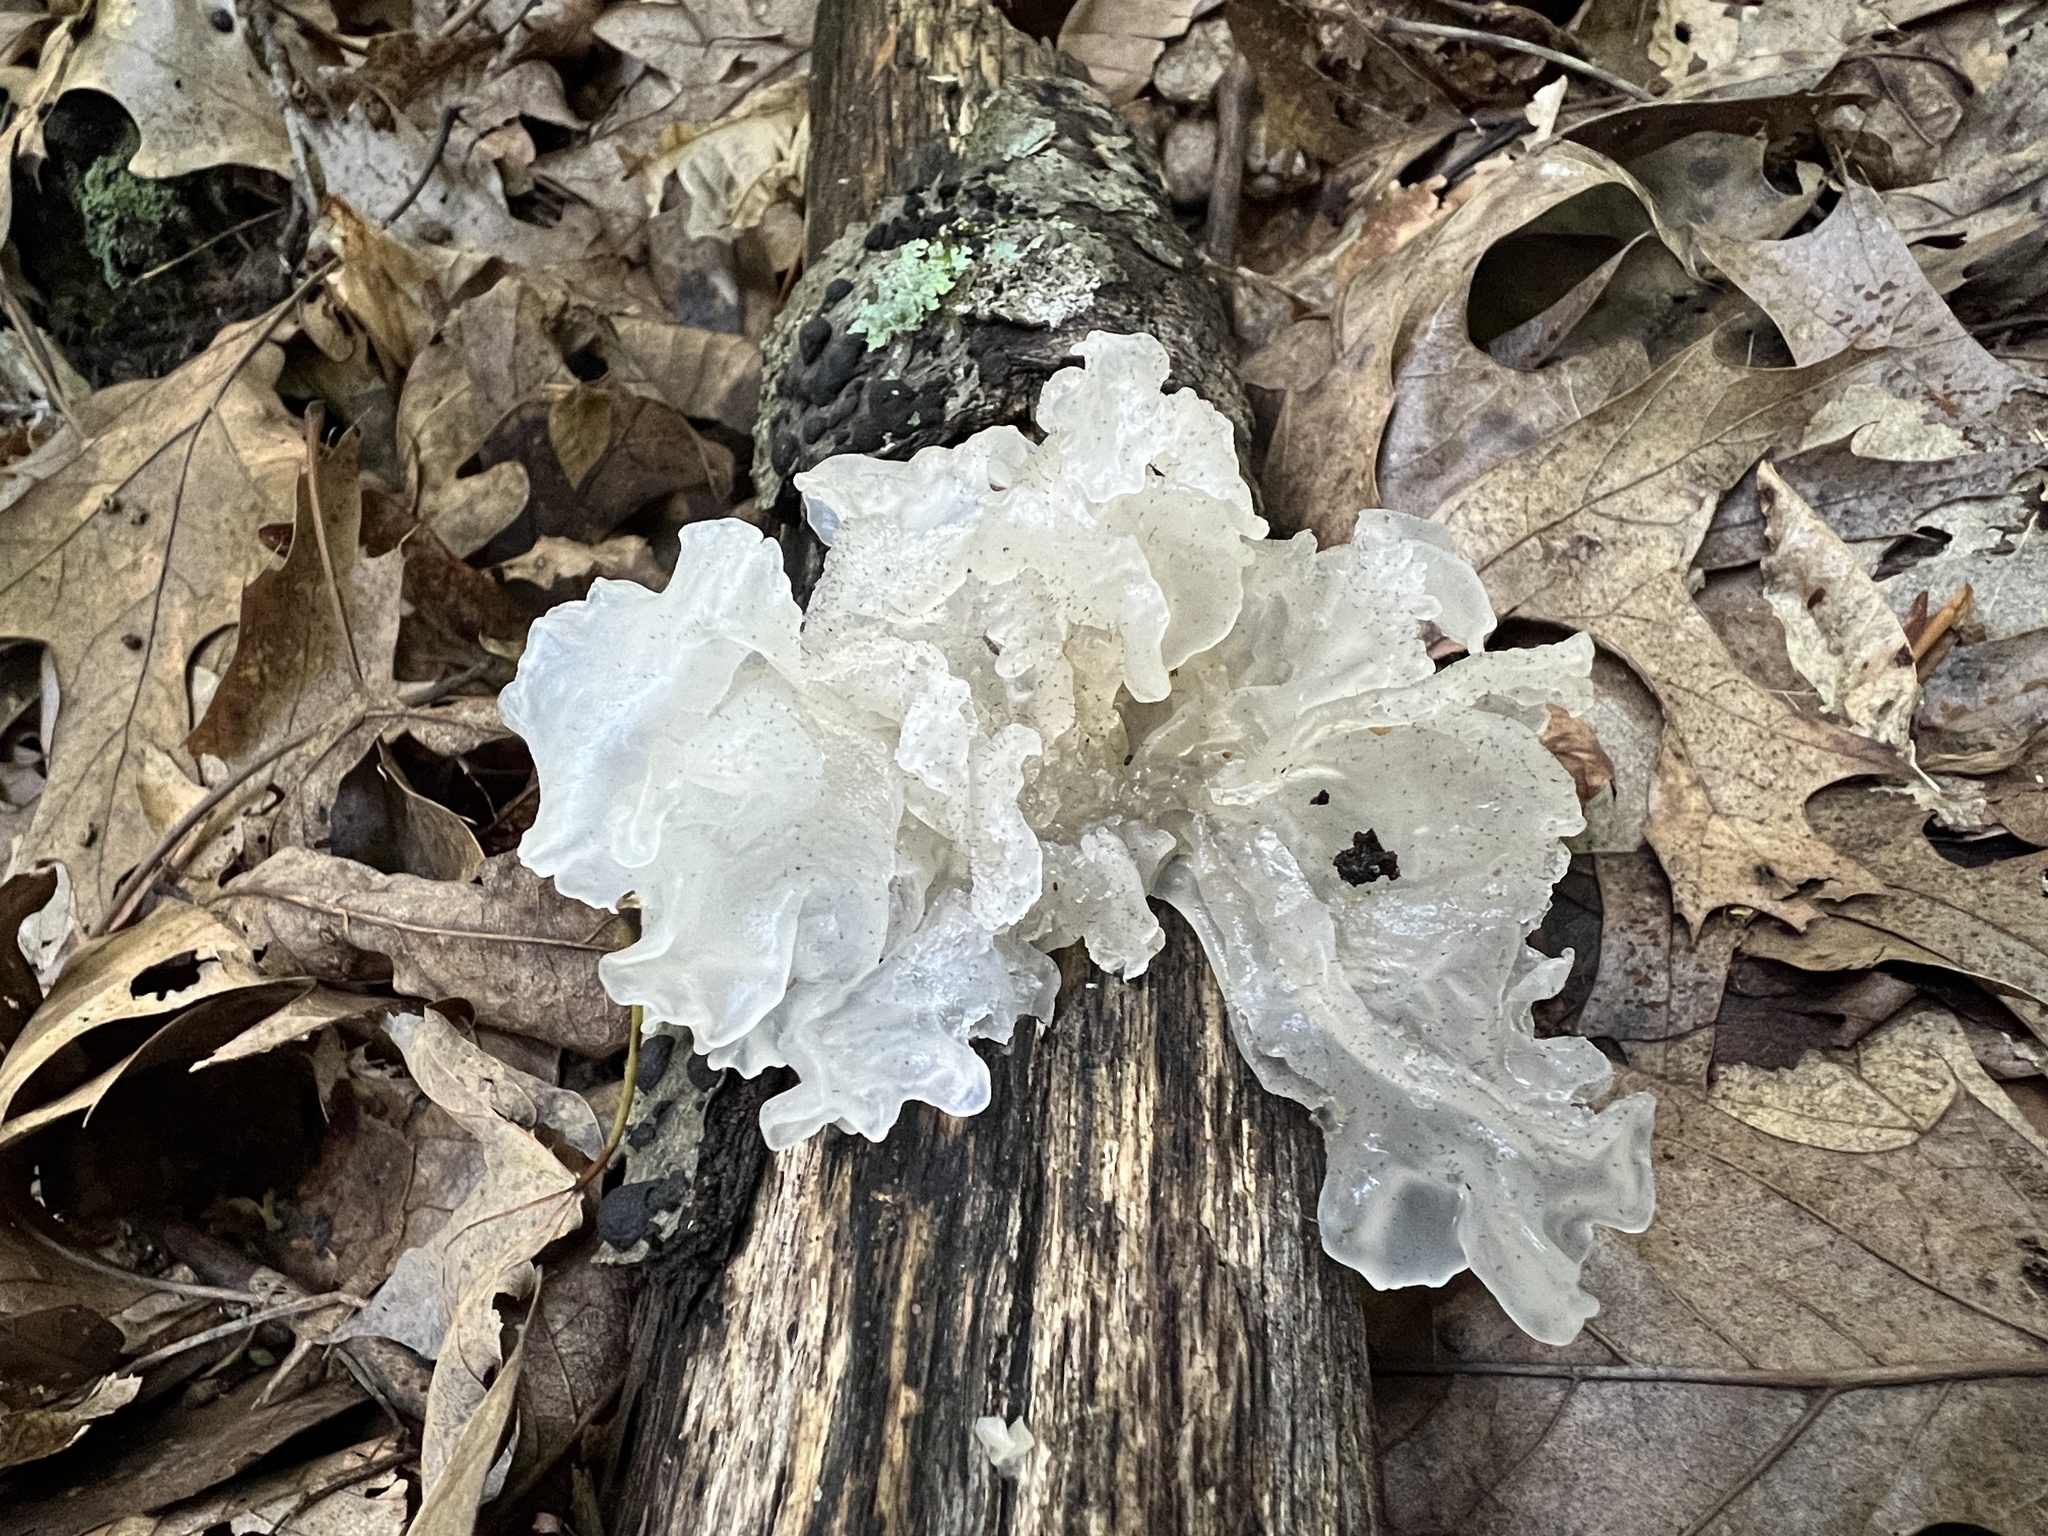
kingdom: Fungi
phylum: Basidiomycota
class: Tremellomycetes
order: Tremellales
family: Tremellaceae
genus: Tremella
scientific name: Tremella fuciformis
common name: Snow fungus
